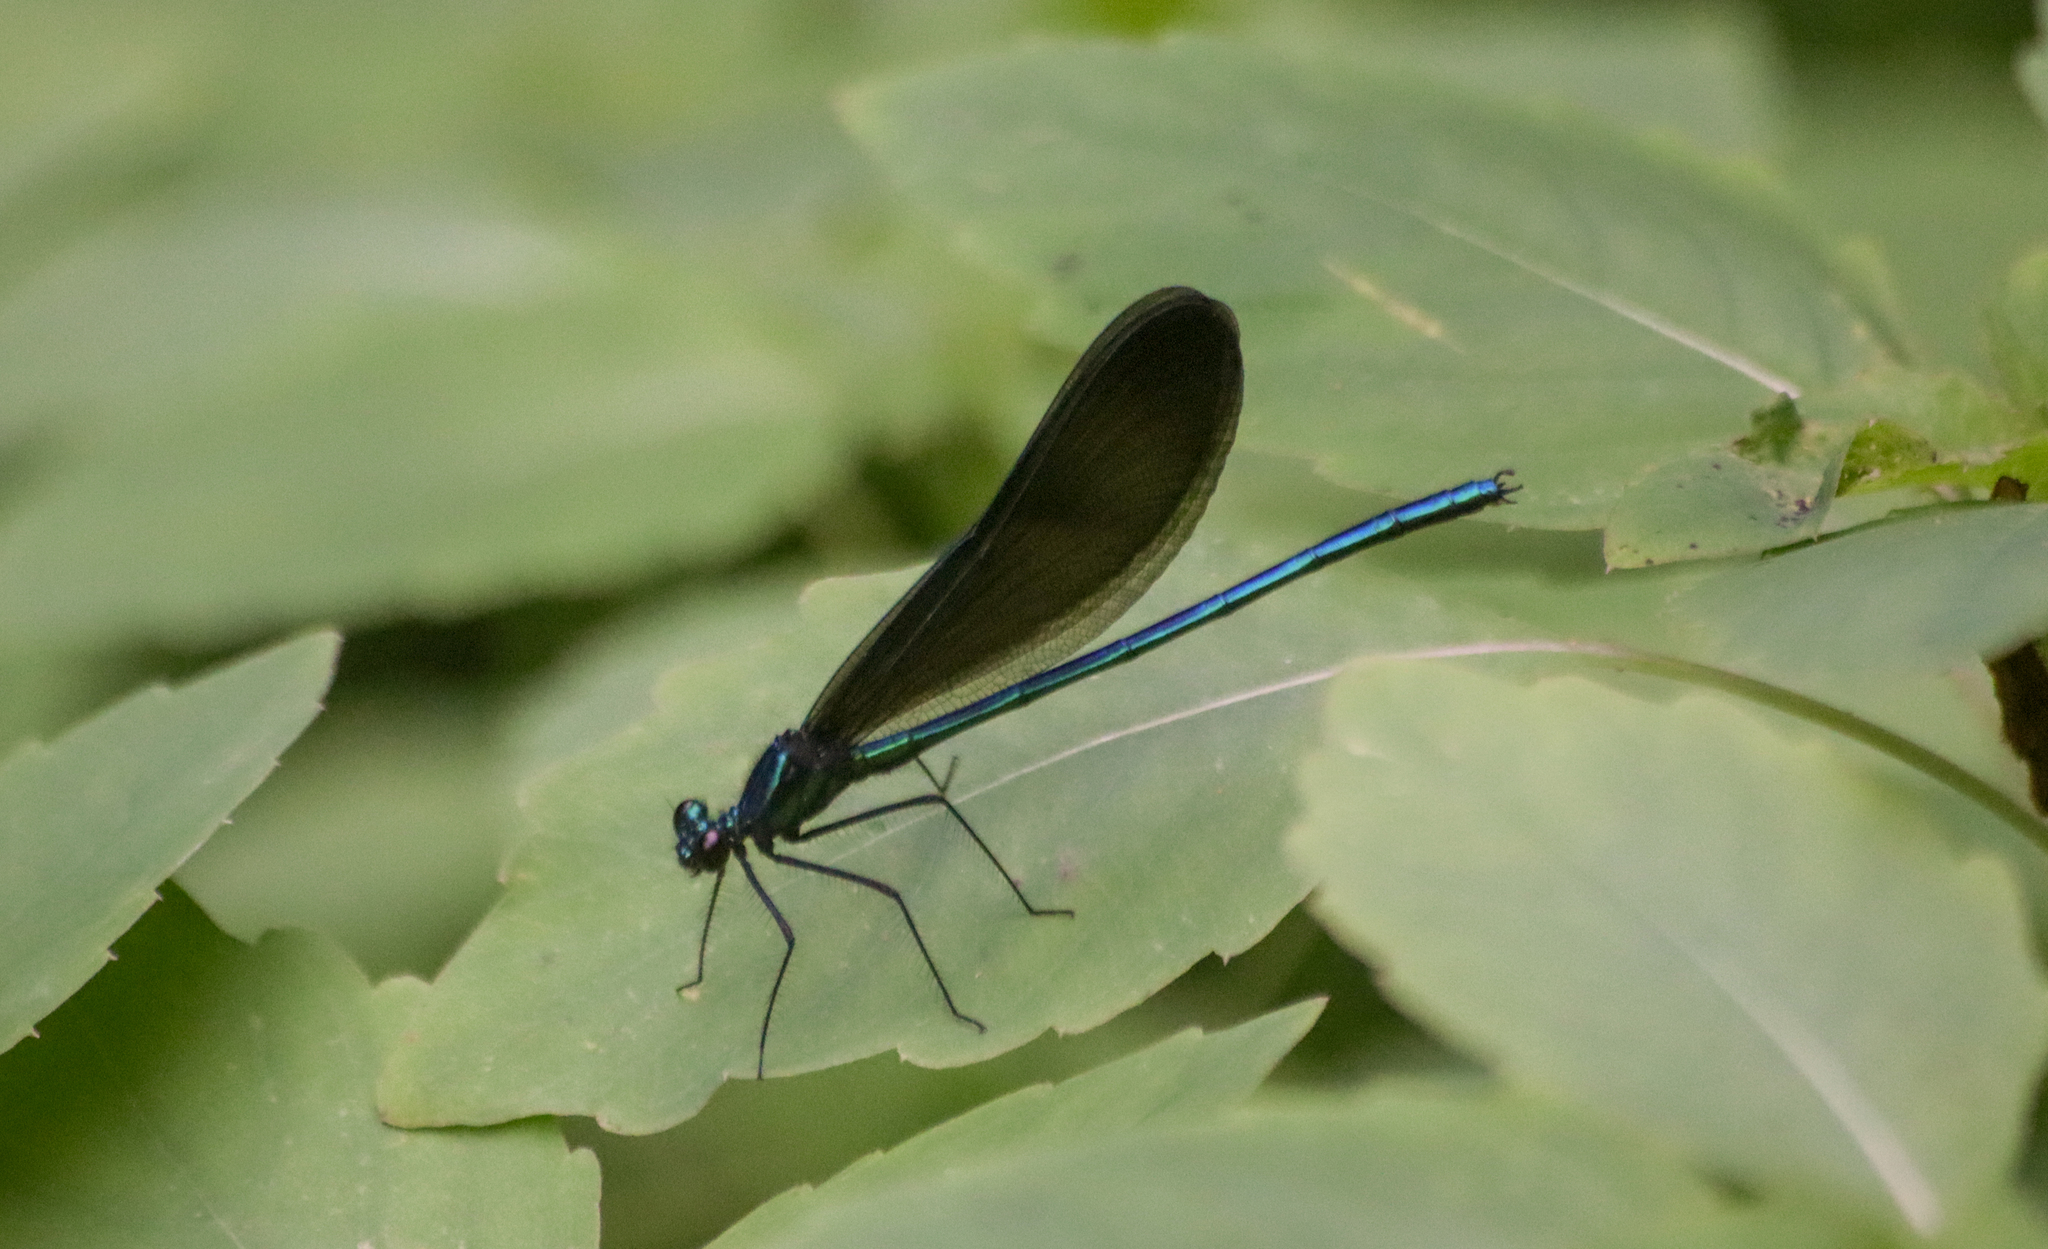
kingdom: Animalia
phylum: Arthropoda
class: Insecta
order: Odonata
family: Calopterygidae
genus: Calopteryx
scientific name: Calopteryx maculata
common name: Ebony jewelwing
